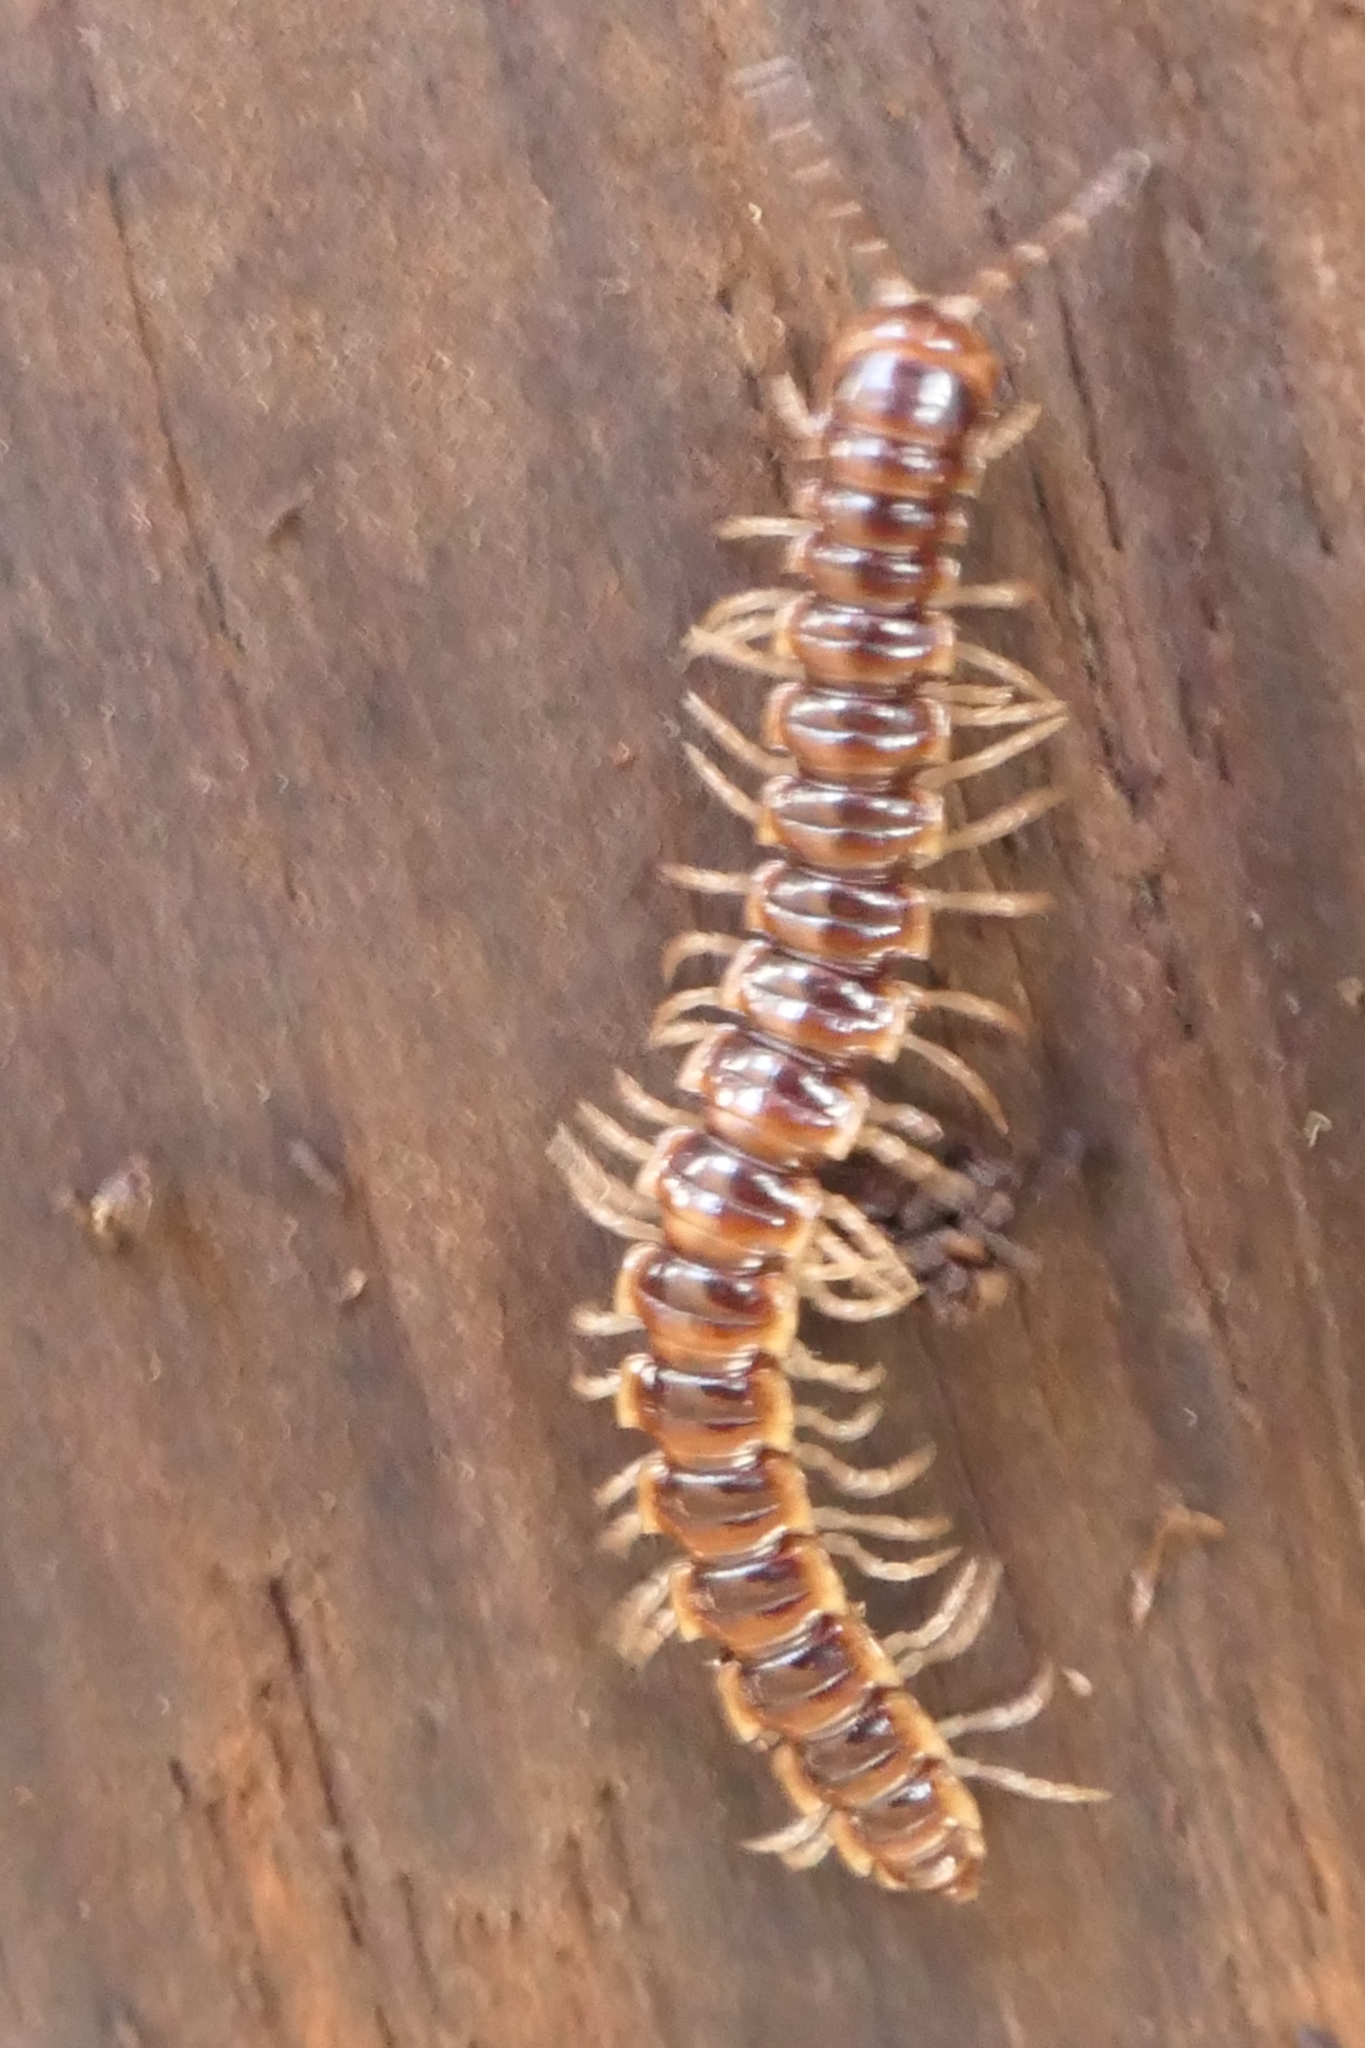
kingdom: Animalia
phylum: Arthropoda
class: Diplopoda
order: Polydesmida
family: Paradoxosomatidae
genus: Oxidus
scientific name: Oxidus gracilis
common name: Greenhouse millipede
